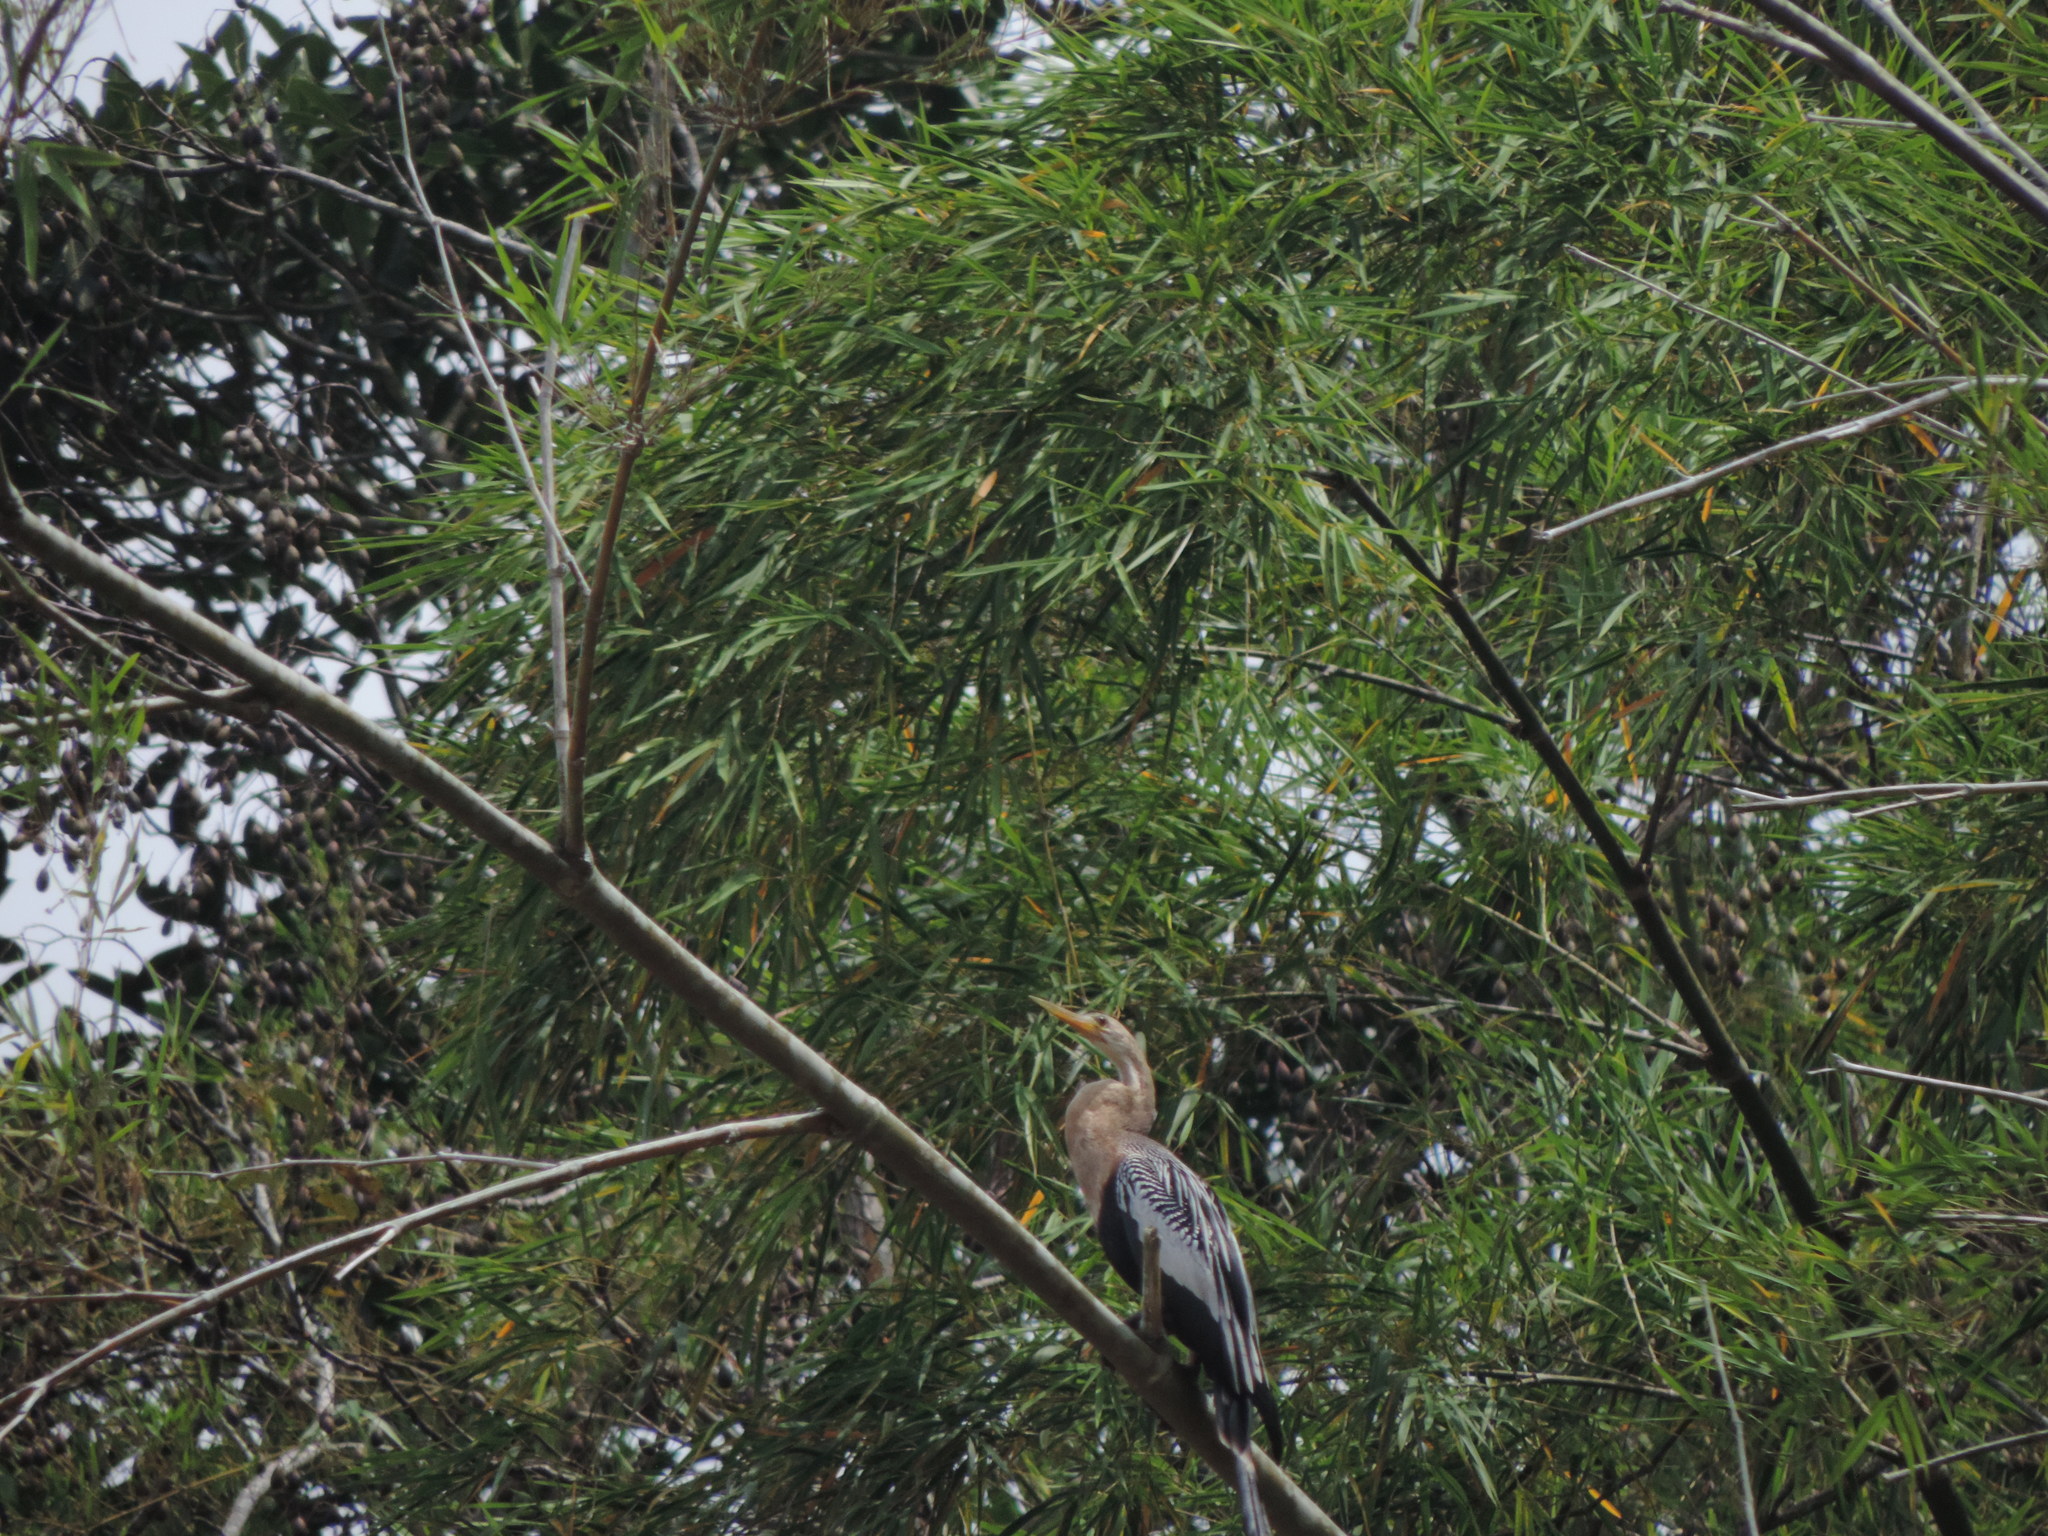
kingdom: Animalia
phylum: Chordata
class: Aves
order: Suliformes
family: Anhingidae
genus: Anhinga
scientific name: Anhinga anhinga
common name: Anhinga
